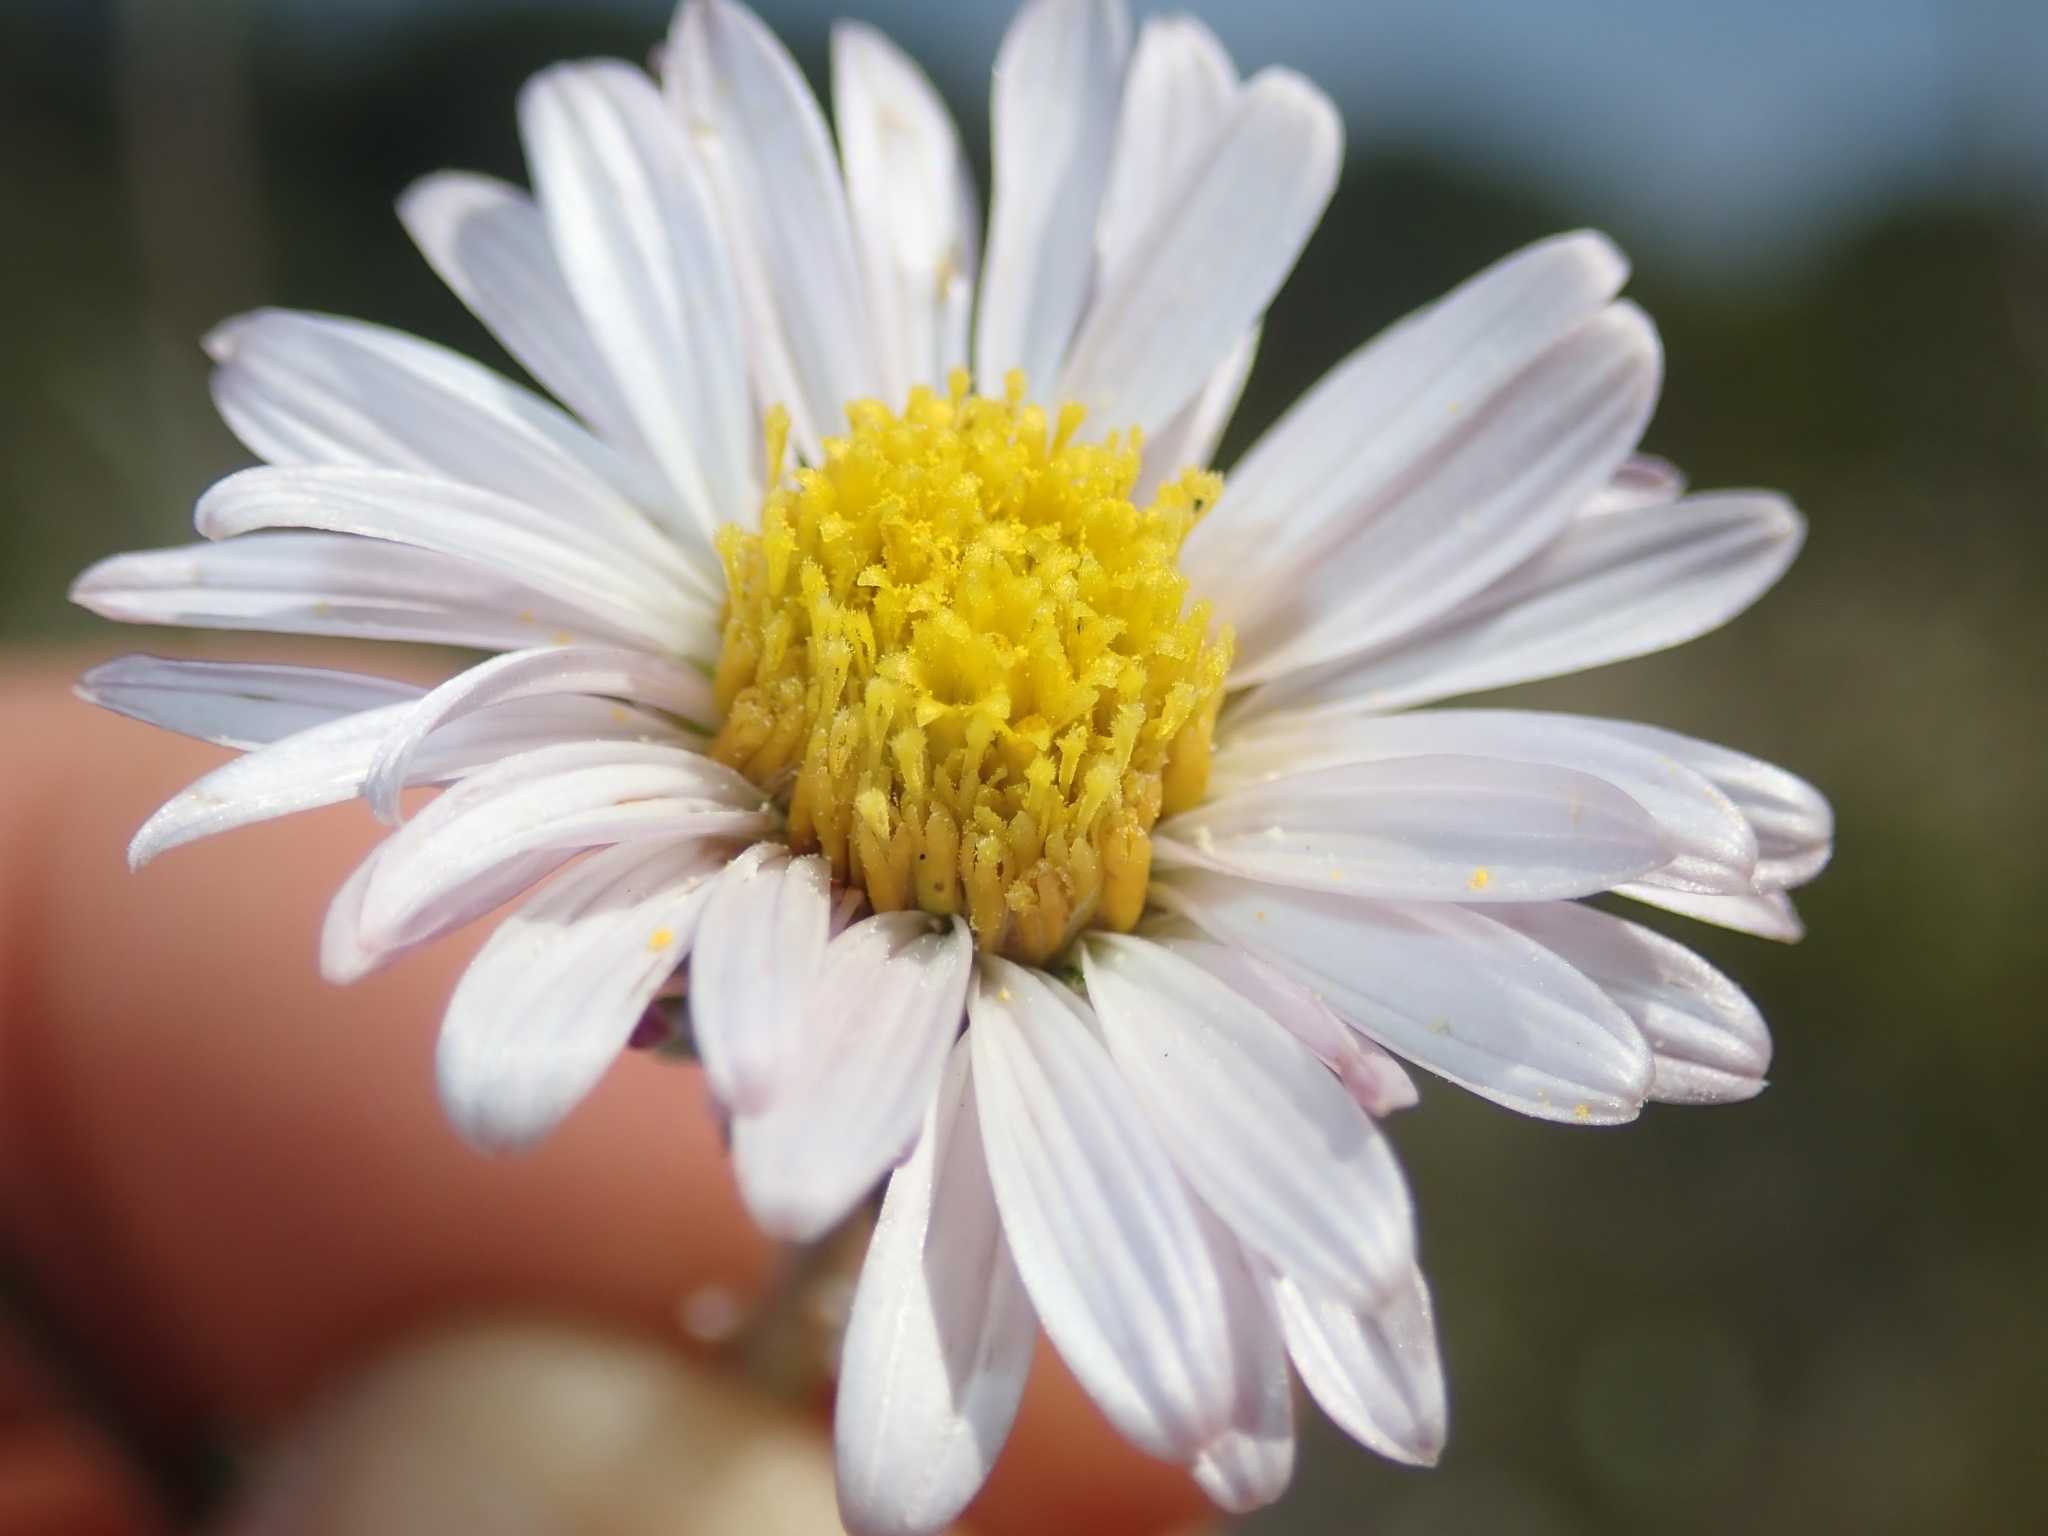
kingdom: Plantae
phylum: Tracheophyta
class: Magnoliopsida
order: Asterales
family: Asteraceae
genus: Corethrogyne
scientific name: Corethrogyne filaginifolia
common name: Sand-aster
